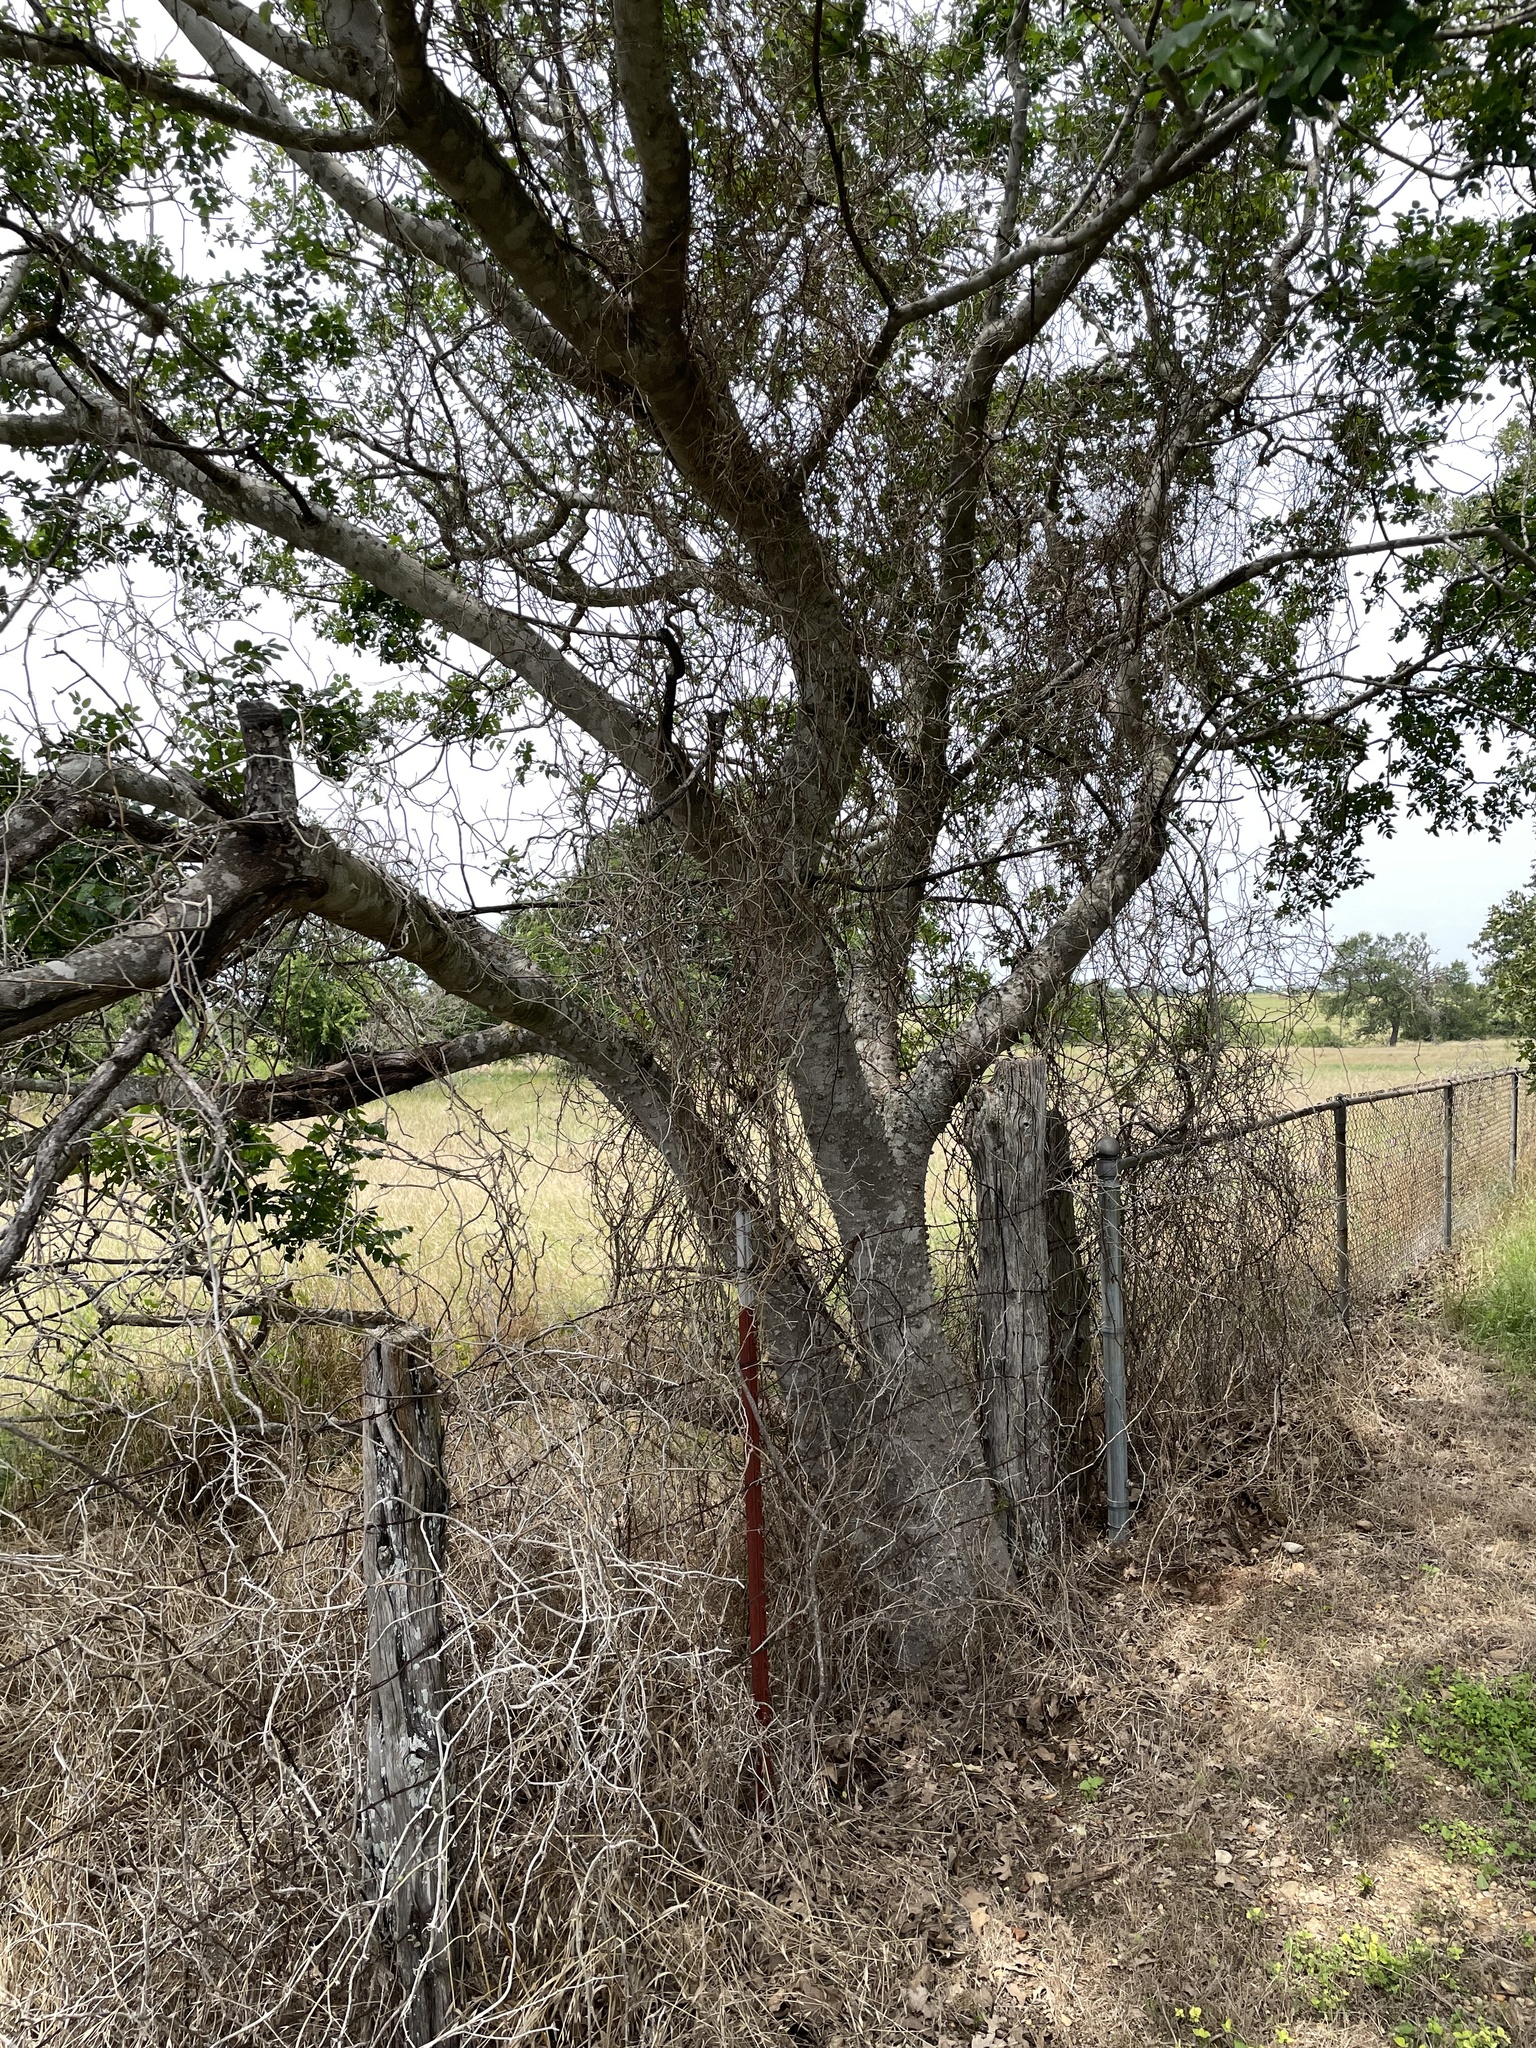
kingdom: Plantae
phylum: Tracheophyta
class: Magnoliopsida
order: Sapindales
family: Rutaceae
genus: Zanthoxylum
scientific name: Zanthoxylum clava-herculis
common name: Hercules'-club
